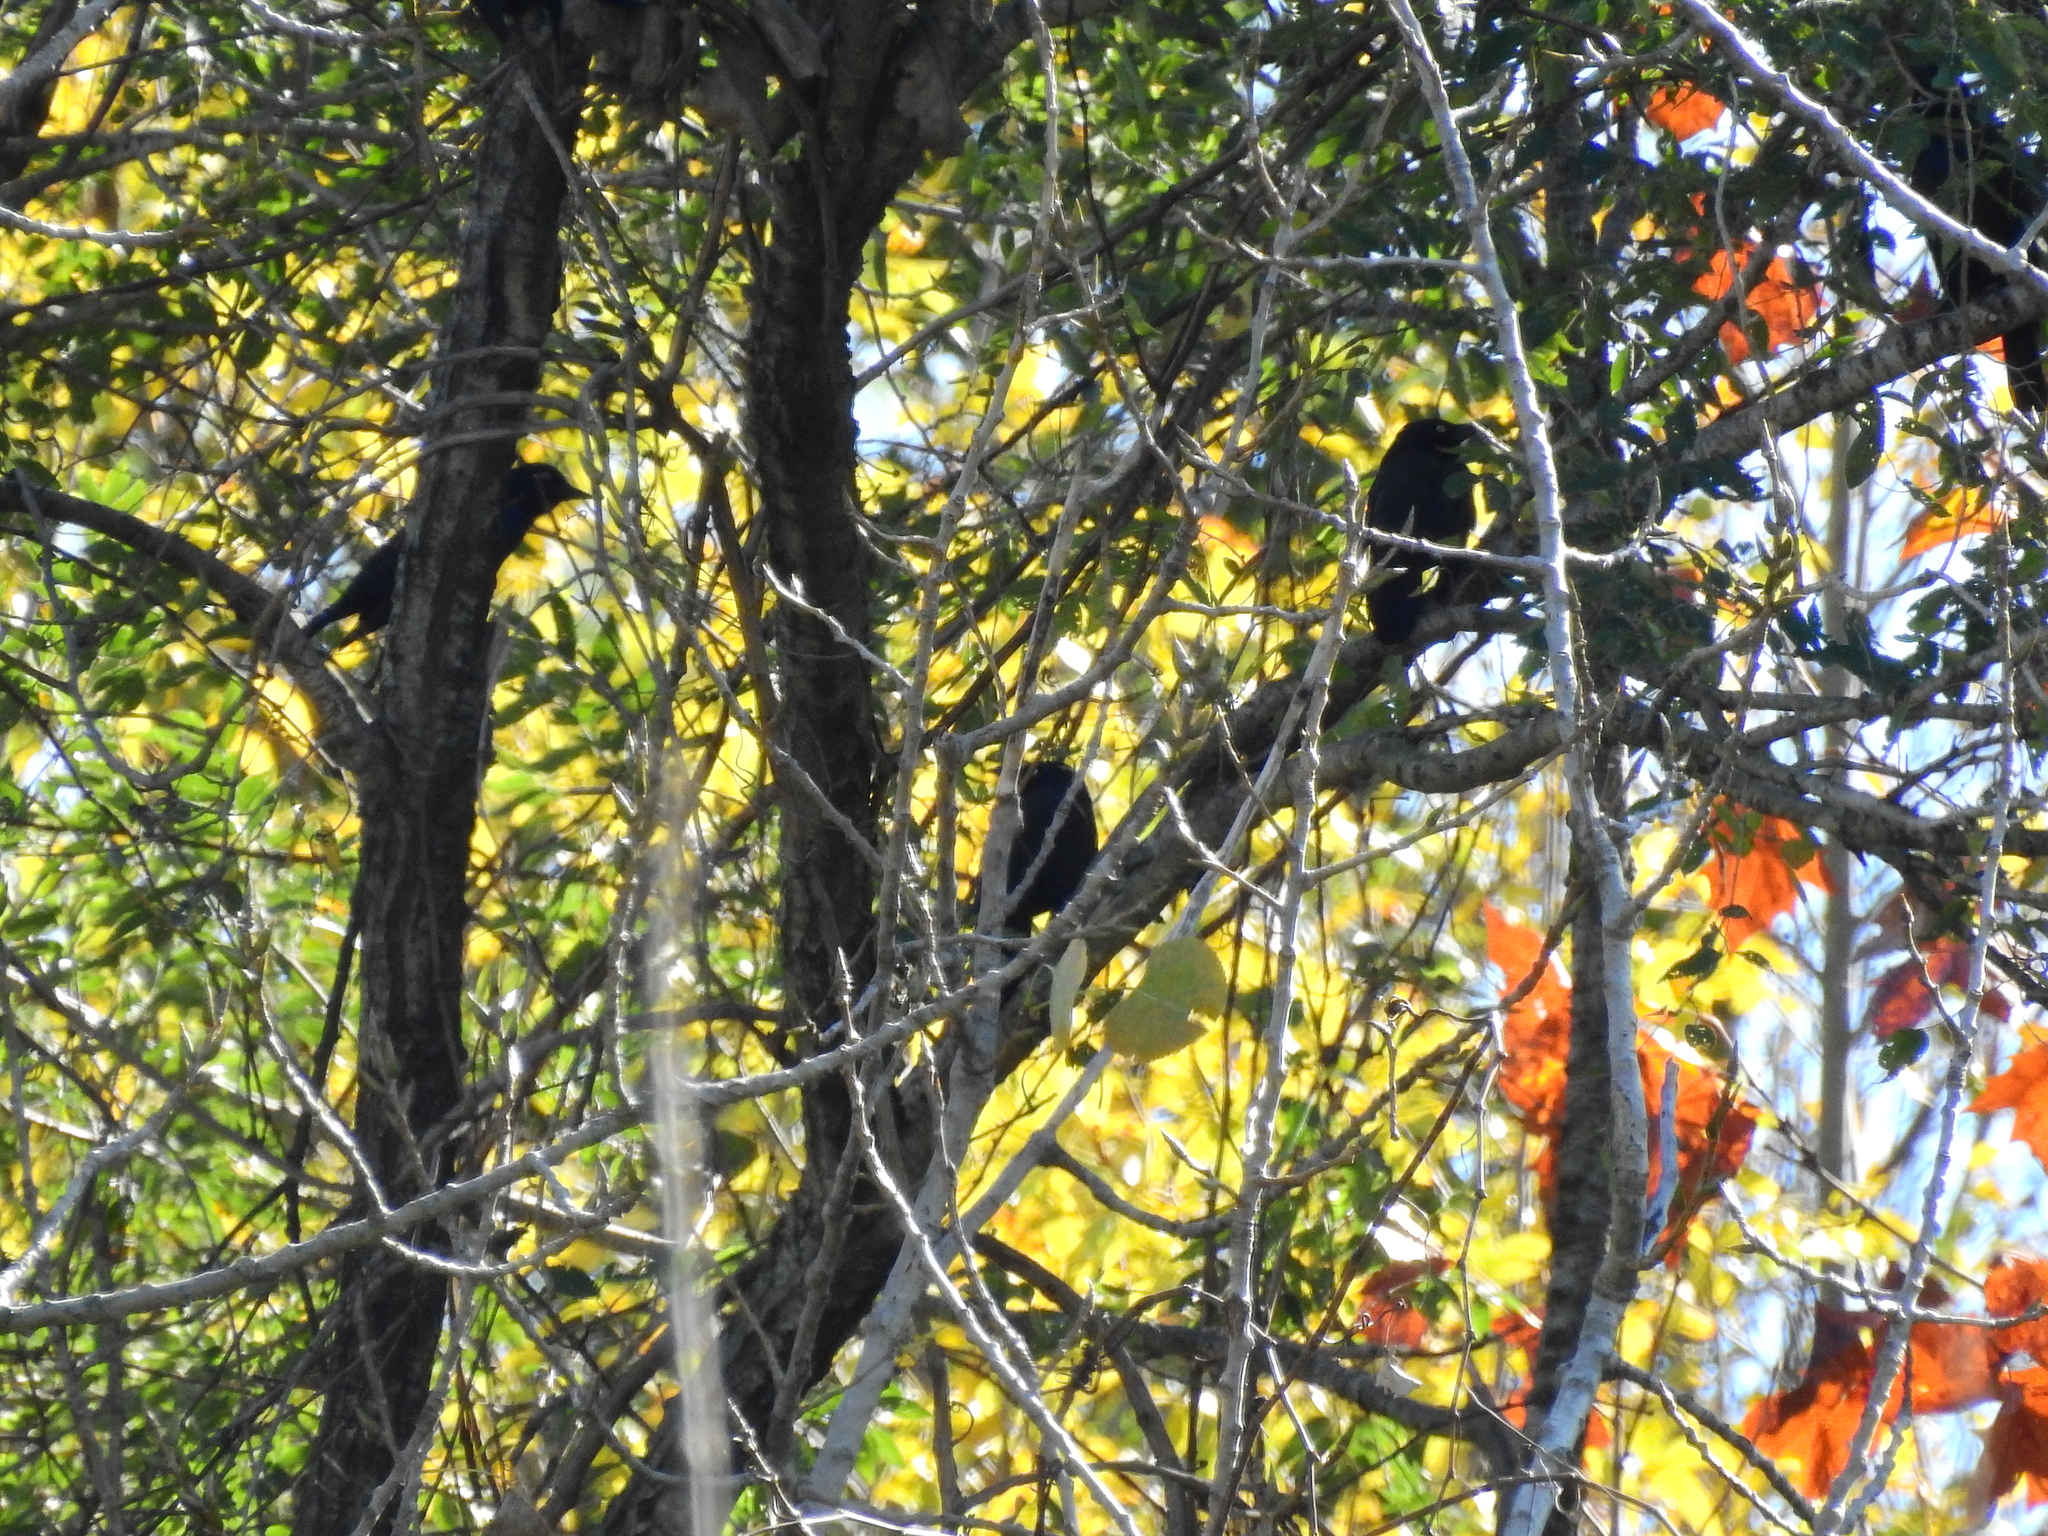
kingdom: Animalia
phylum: Chordata
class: Aves
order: Passeriformes
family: Icteridae
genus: Quiscalus
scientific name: Quiscalus quiscula
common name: Common grackle
